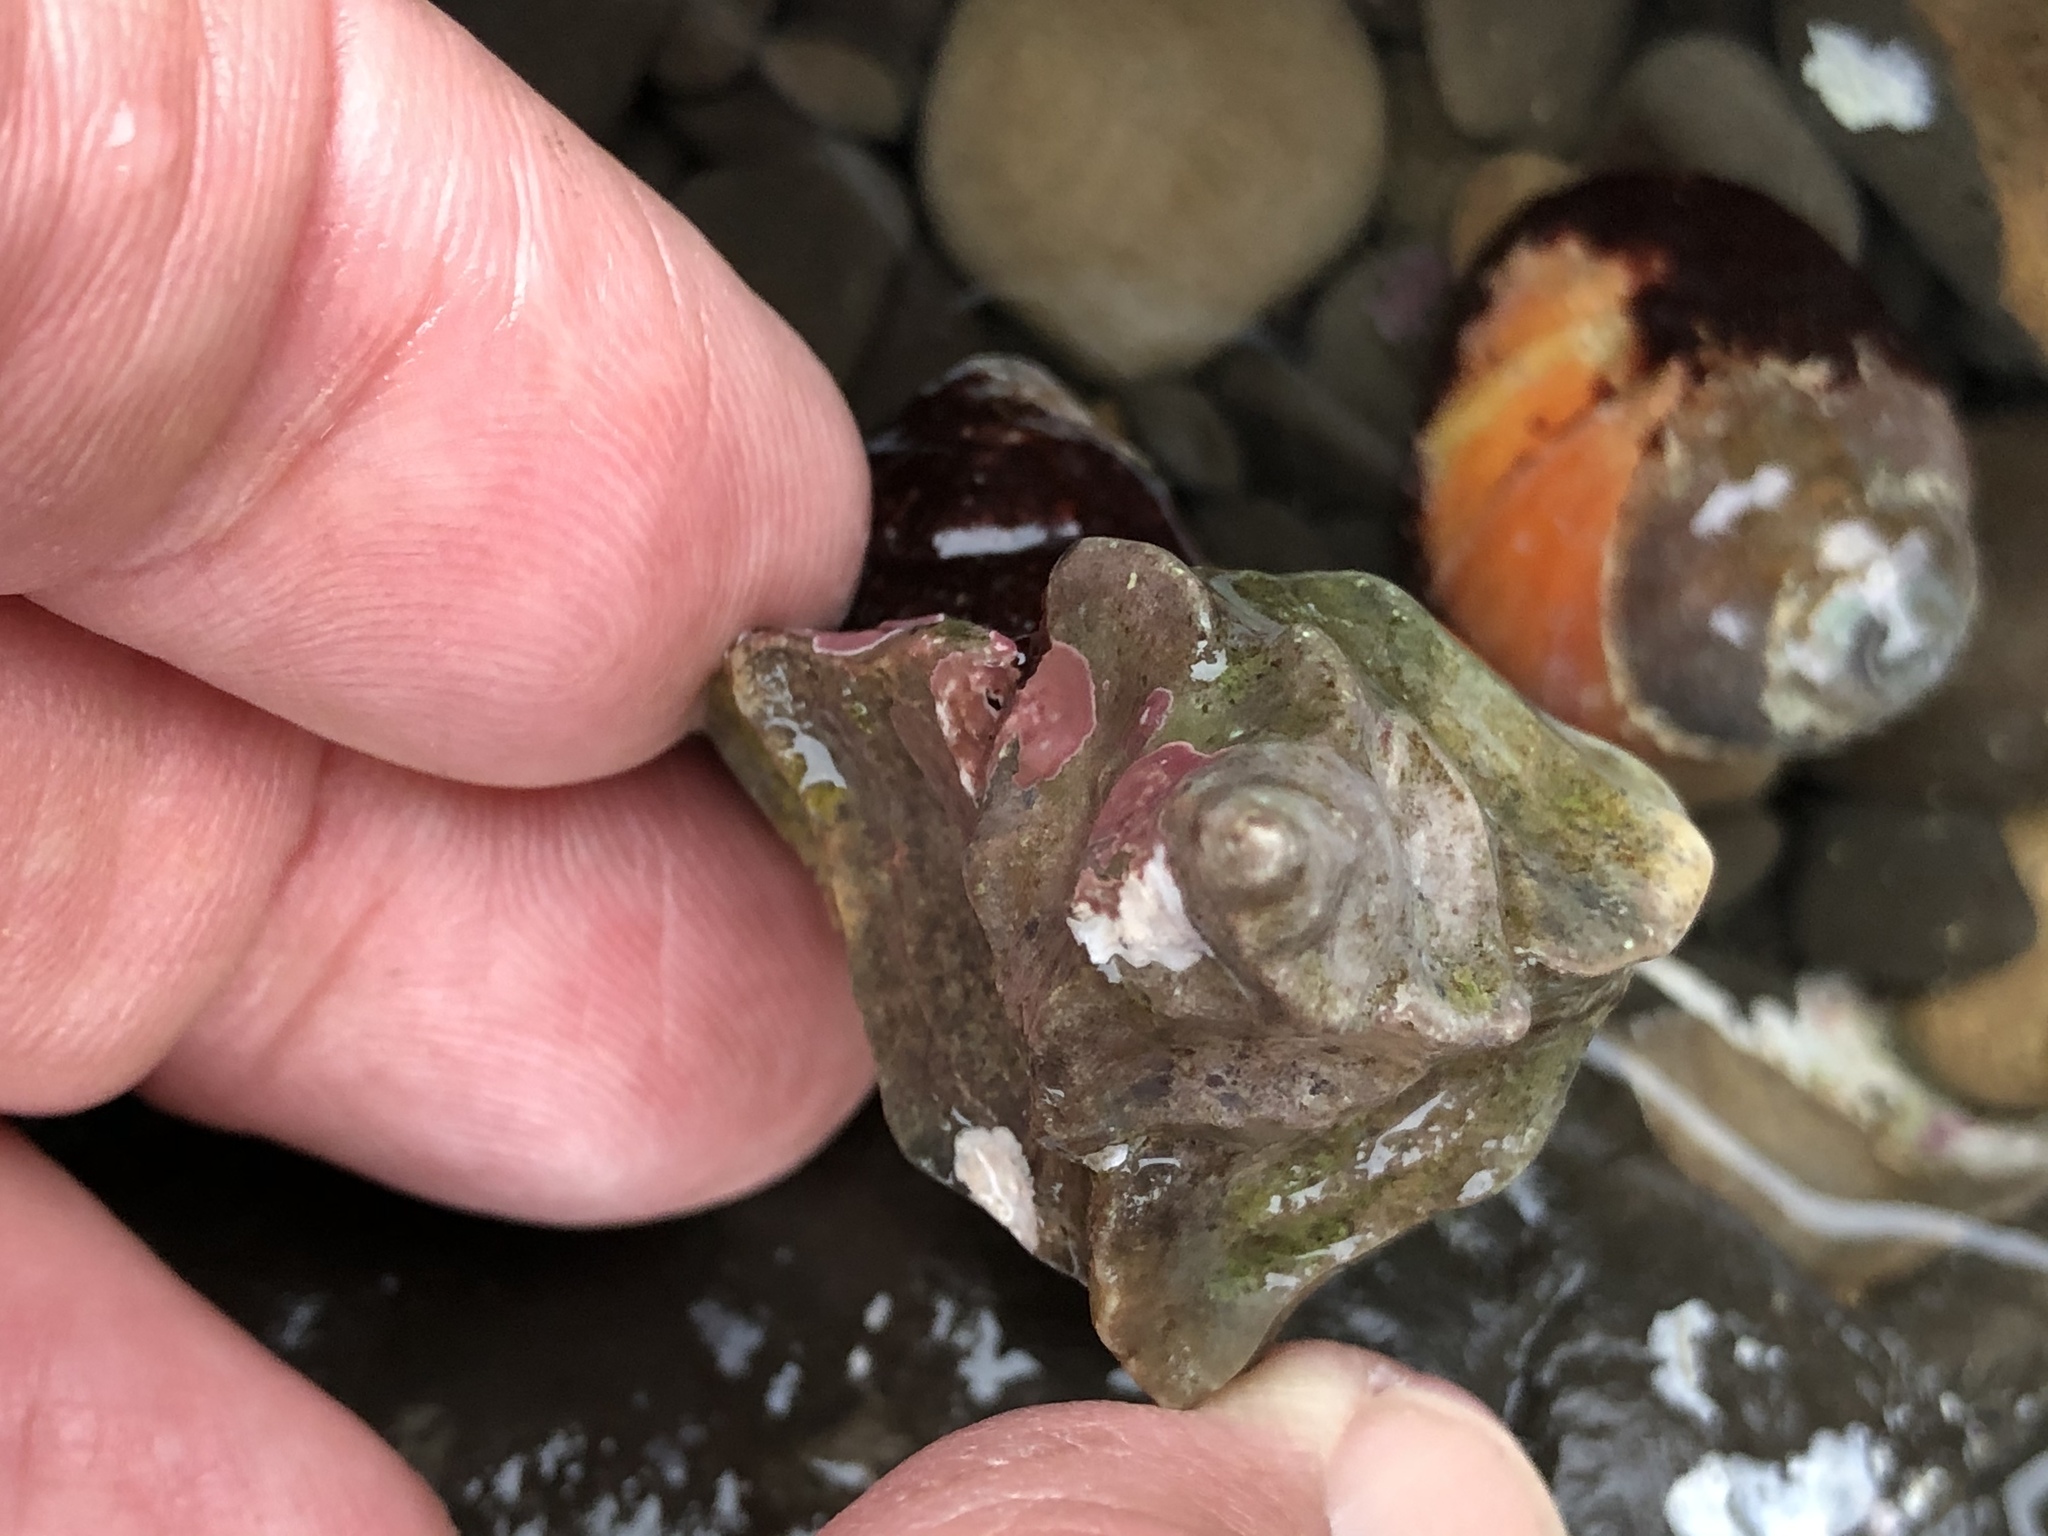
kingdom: Animalia
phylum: Mollusca
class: Gastropoda
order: Neogastropoda
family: Muricidae
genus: Ceratostoma
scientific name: Ceratostoma foliatum
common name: Foliate thorn purpura
